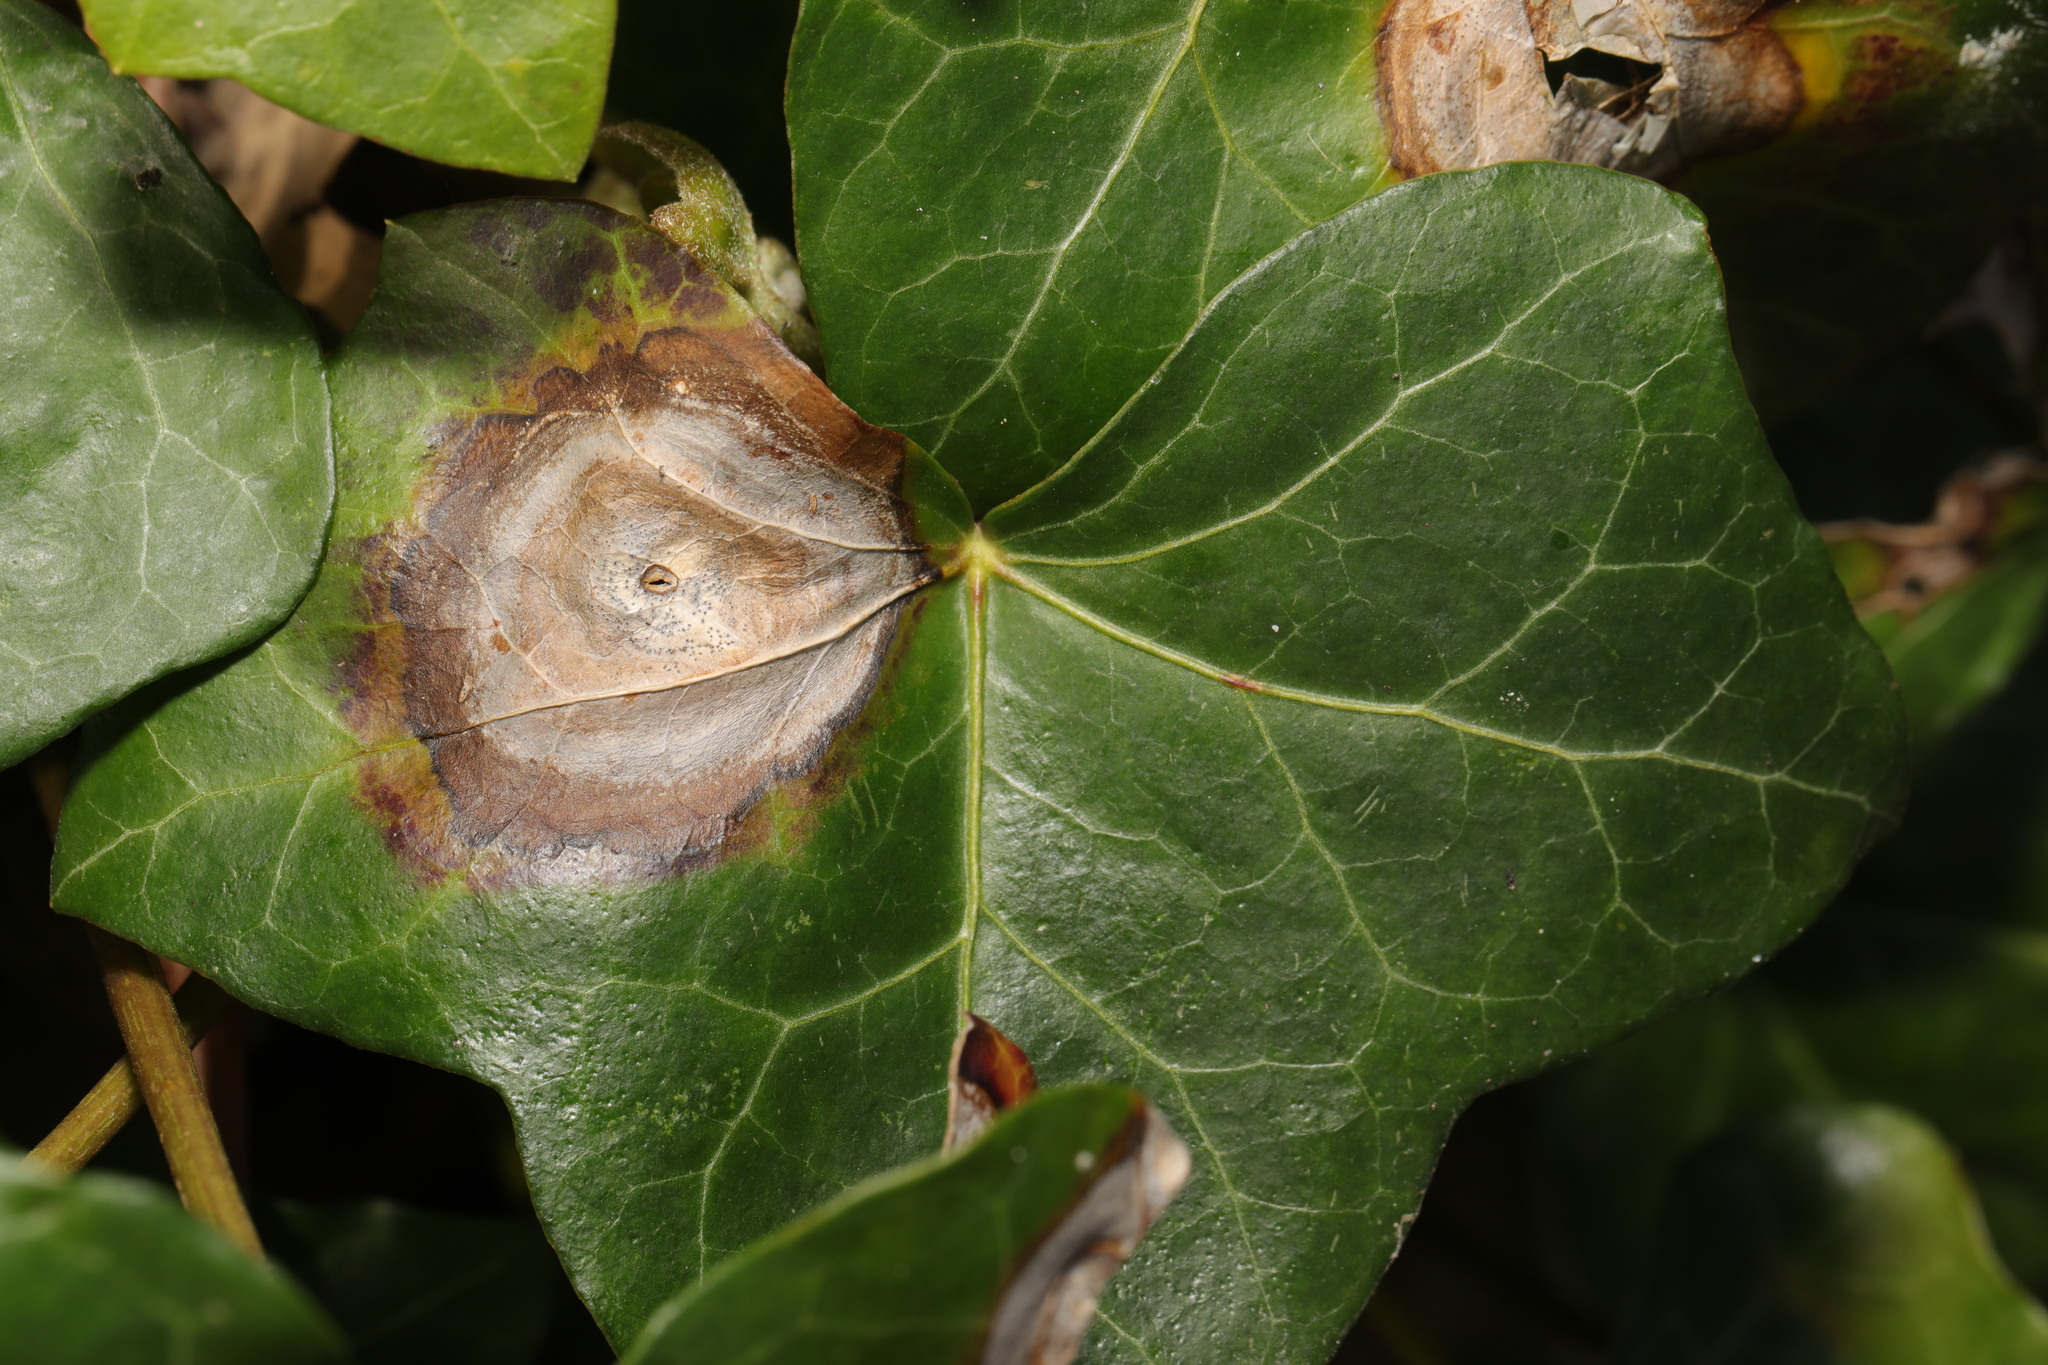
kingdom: Fungi
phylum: Ascomycota
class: Dothideomycetes
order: Pleosporales
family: Didymellaceae
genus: Boeremia
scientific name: Boeremia hedericola
